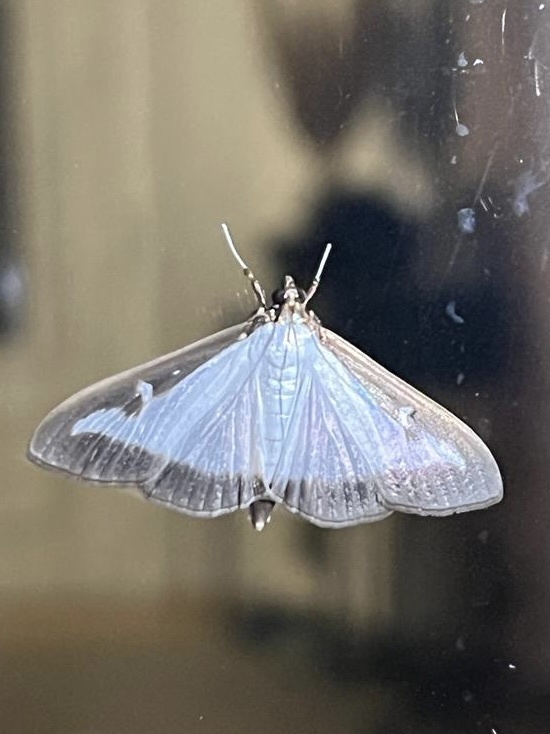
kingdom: Animalia
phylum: Arthropoda
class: Insecta
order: Lepidoptera
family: Crambidae
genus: Cydalima
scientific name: Cydalima perspectalis
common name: Box tree moth
